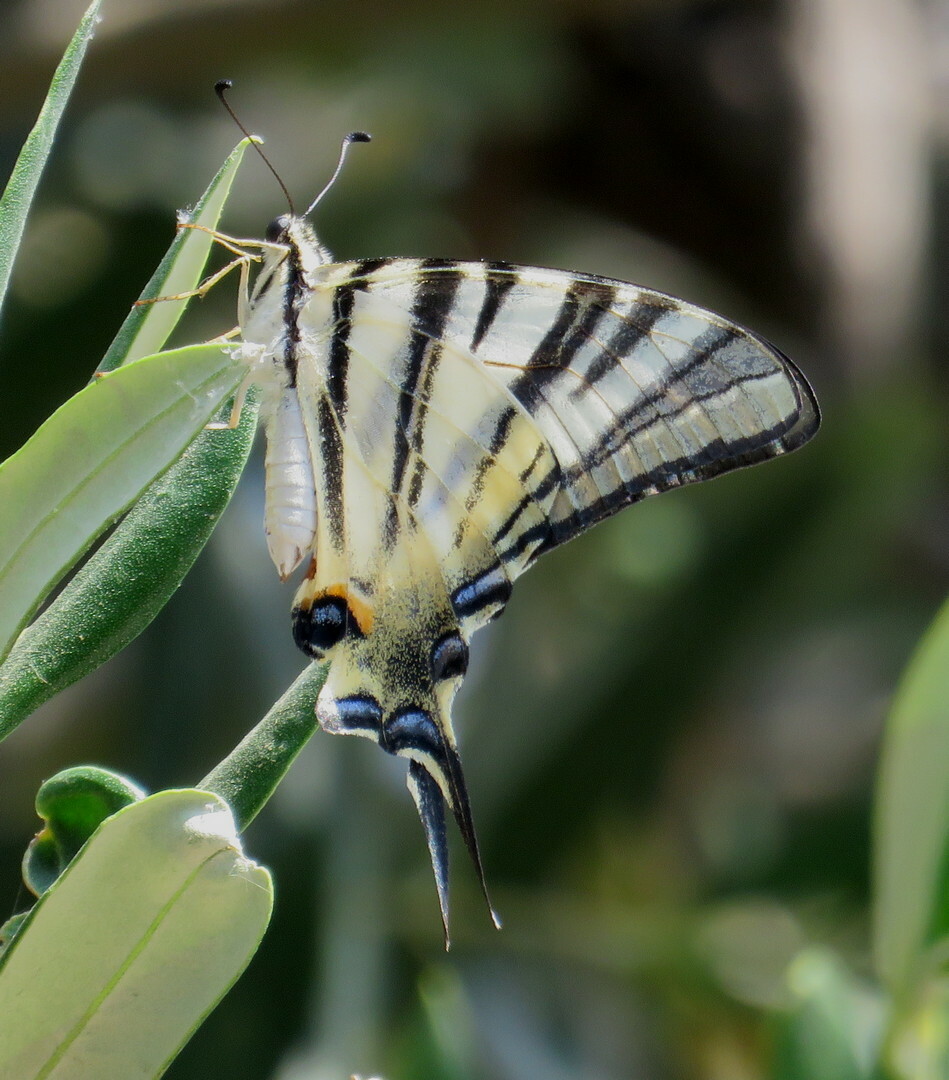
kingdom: Animalia
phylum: Arthropoda
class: Insecta
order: Lepidoptera
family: Papilionidae
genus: Iphiclides
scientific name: Iphiclides podalirius
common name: Scarce swallowtail
